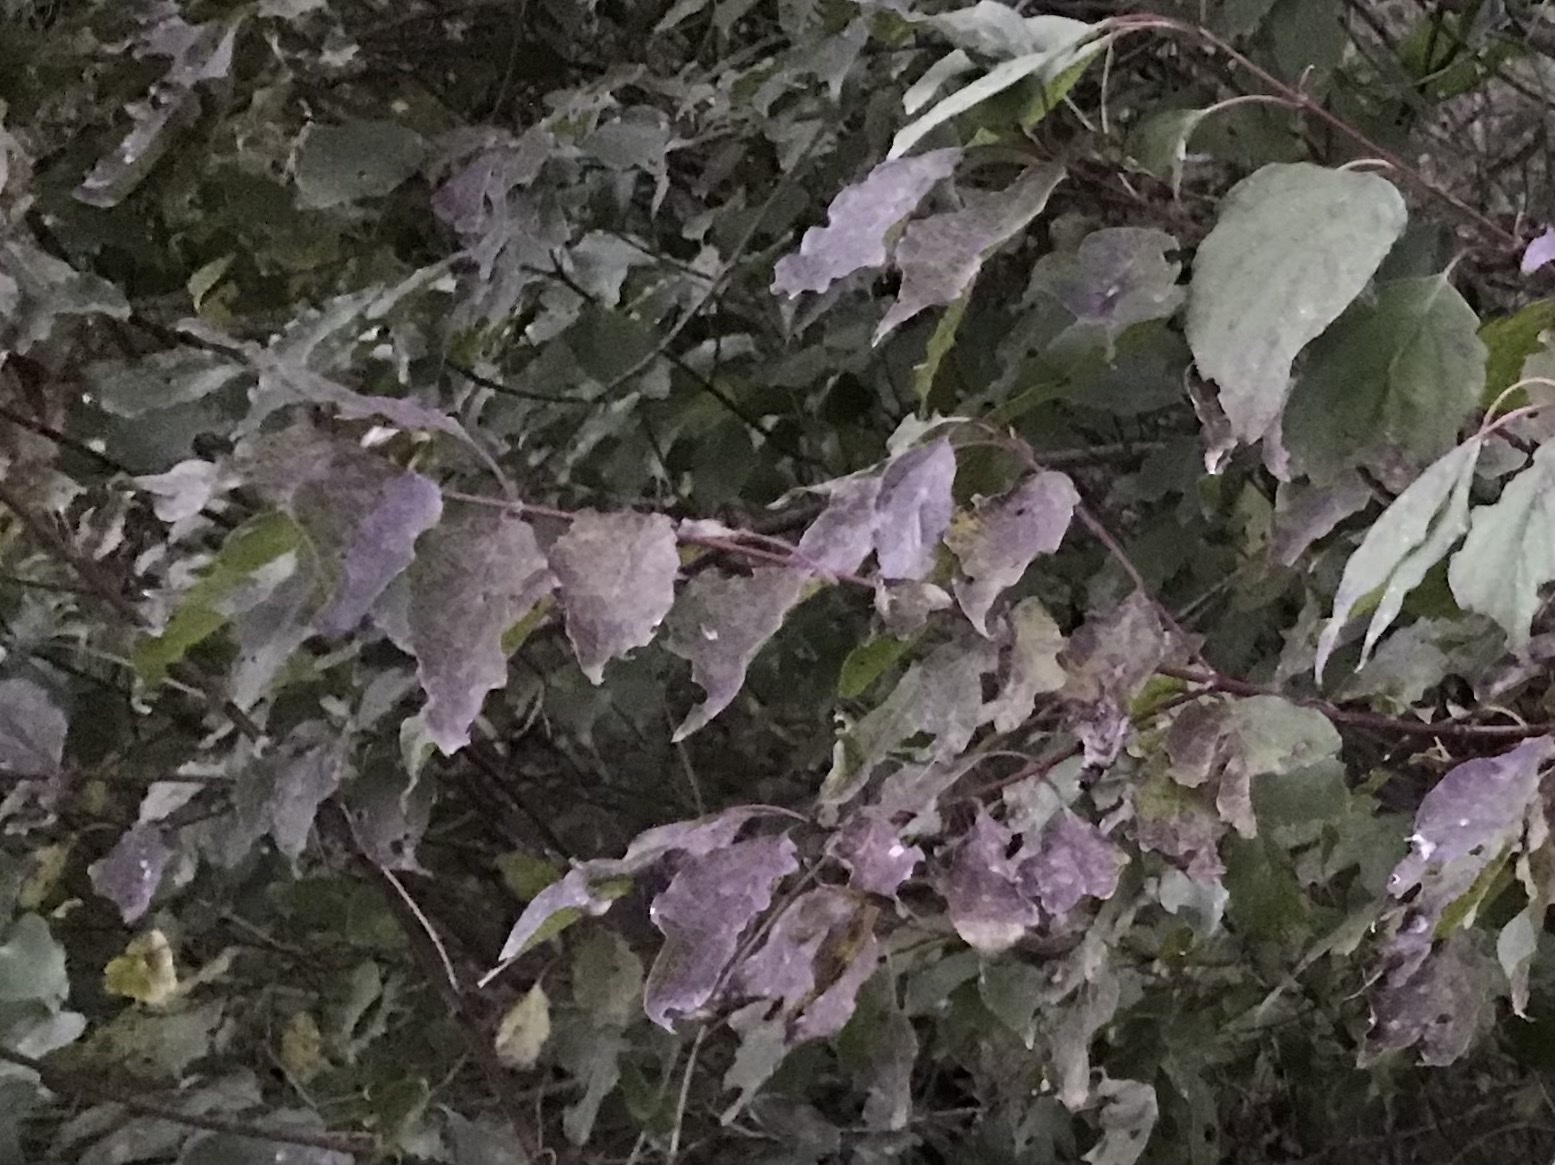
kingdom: Plantae
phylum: Tracheophyta
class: Magnoliopsida
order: Cornales
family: Cornaceae
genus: Cornus
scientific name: Cornus drummondii
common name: Rough-leaf dogwood
